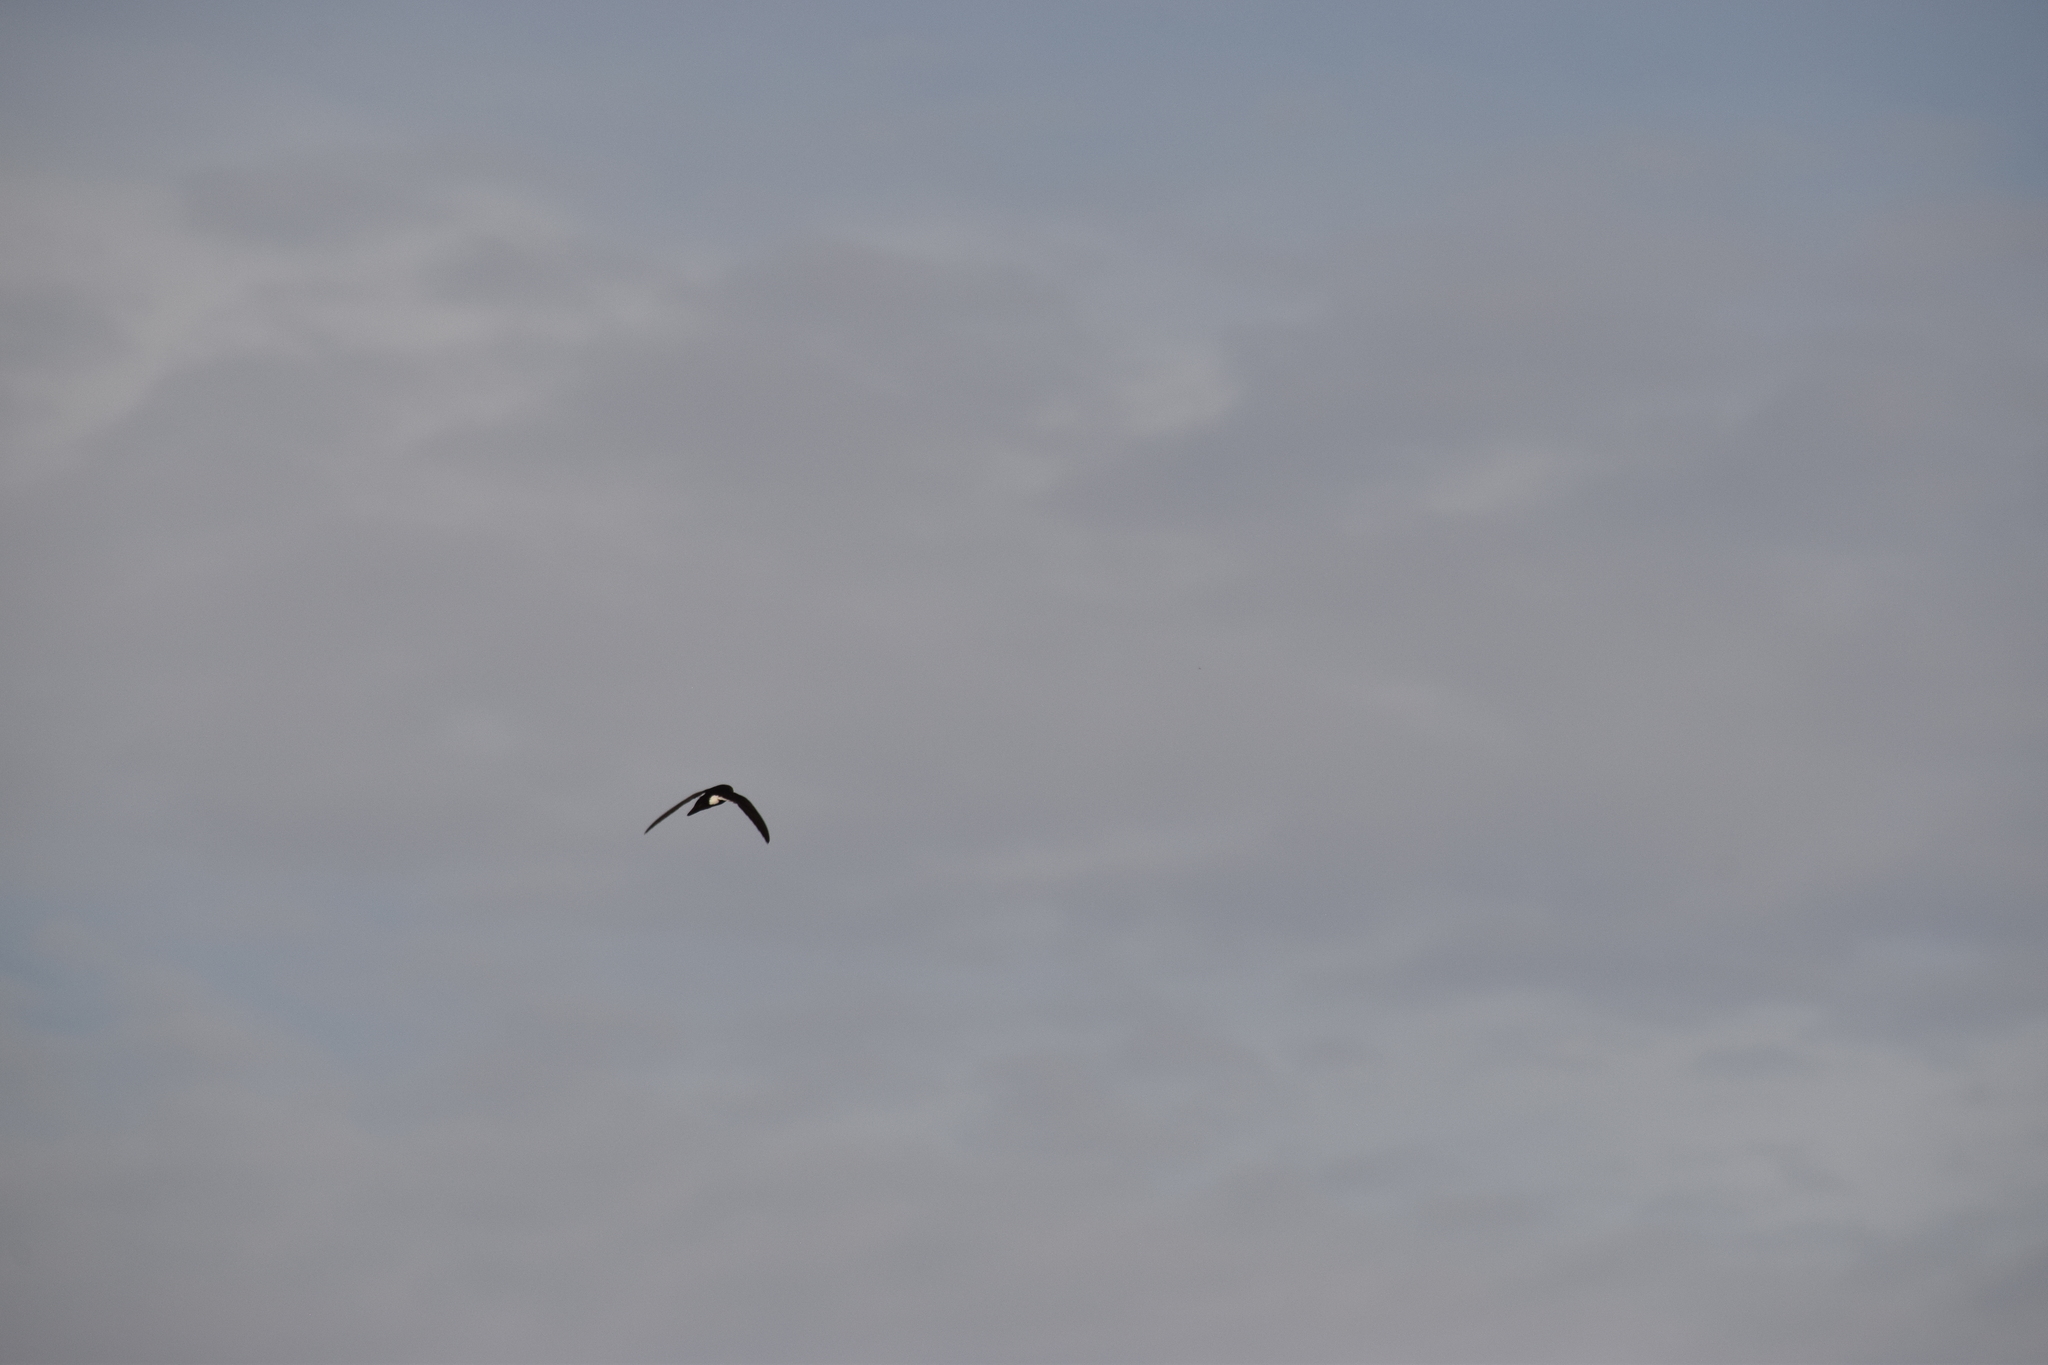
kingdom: Animalia
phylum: Chordata
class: Aves
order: Apodiformes
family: Apodidae
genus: Aeronautes
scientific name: Aeronautes saxatalis
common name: White-throated swift
